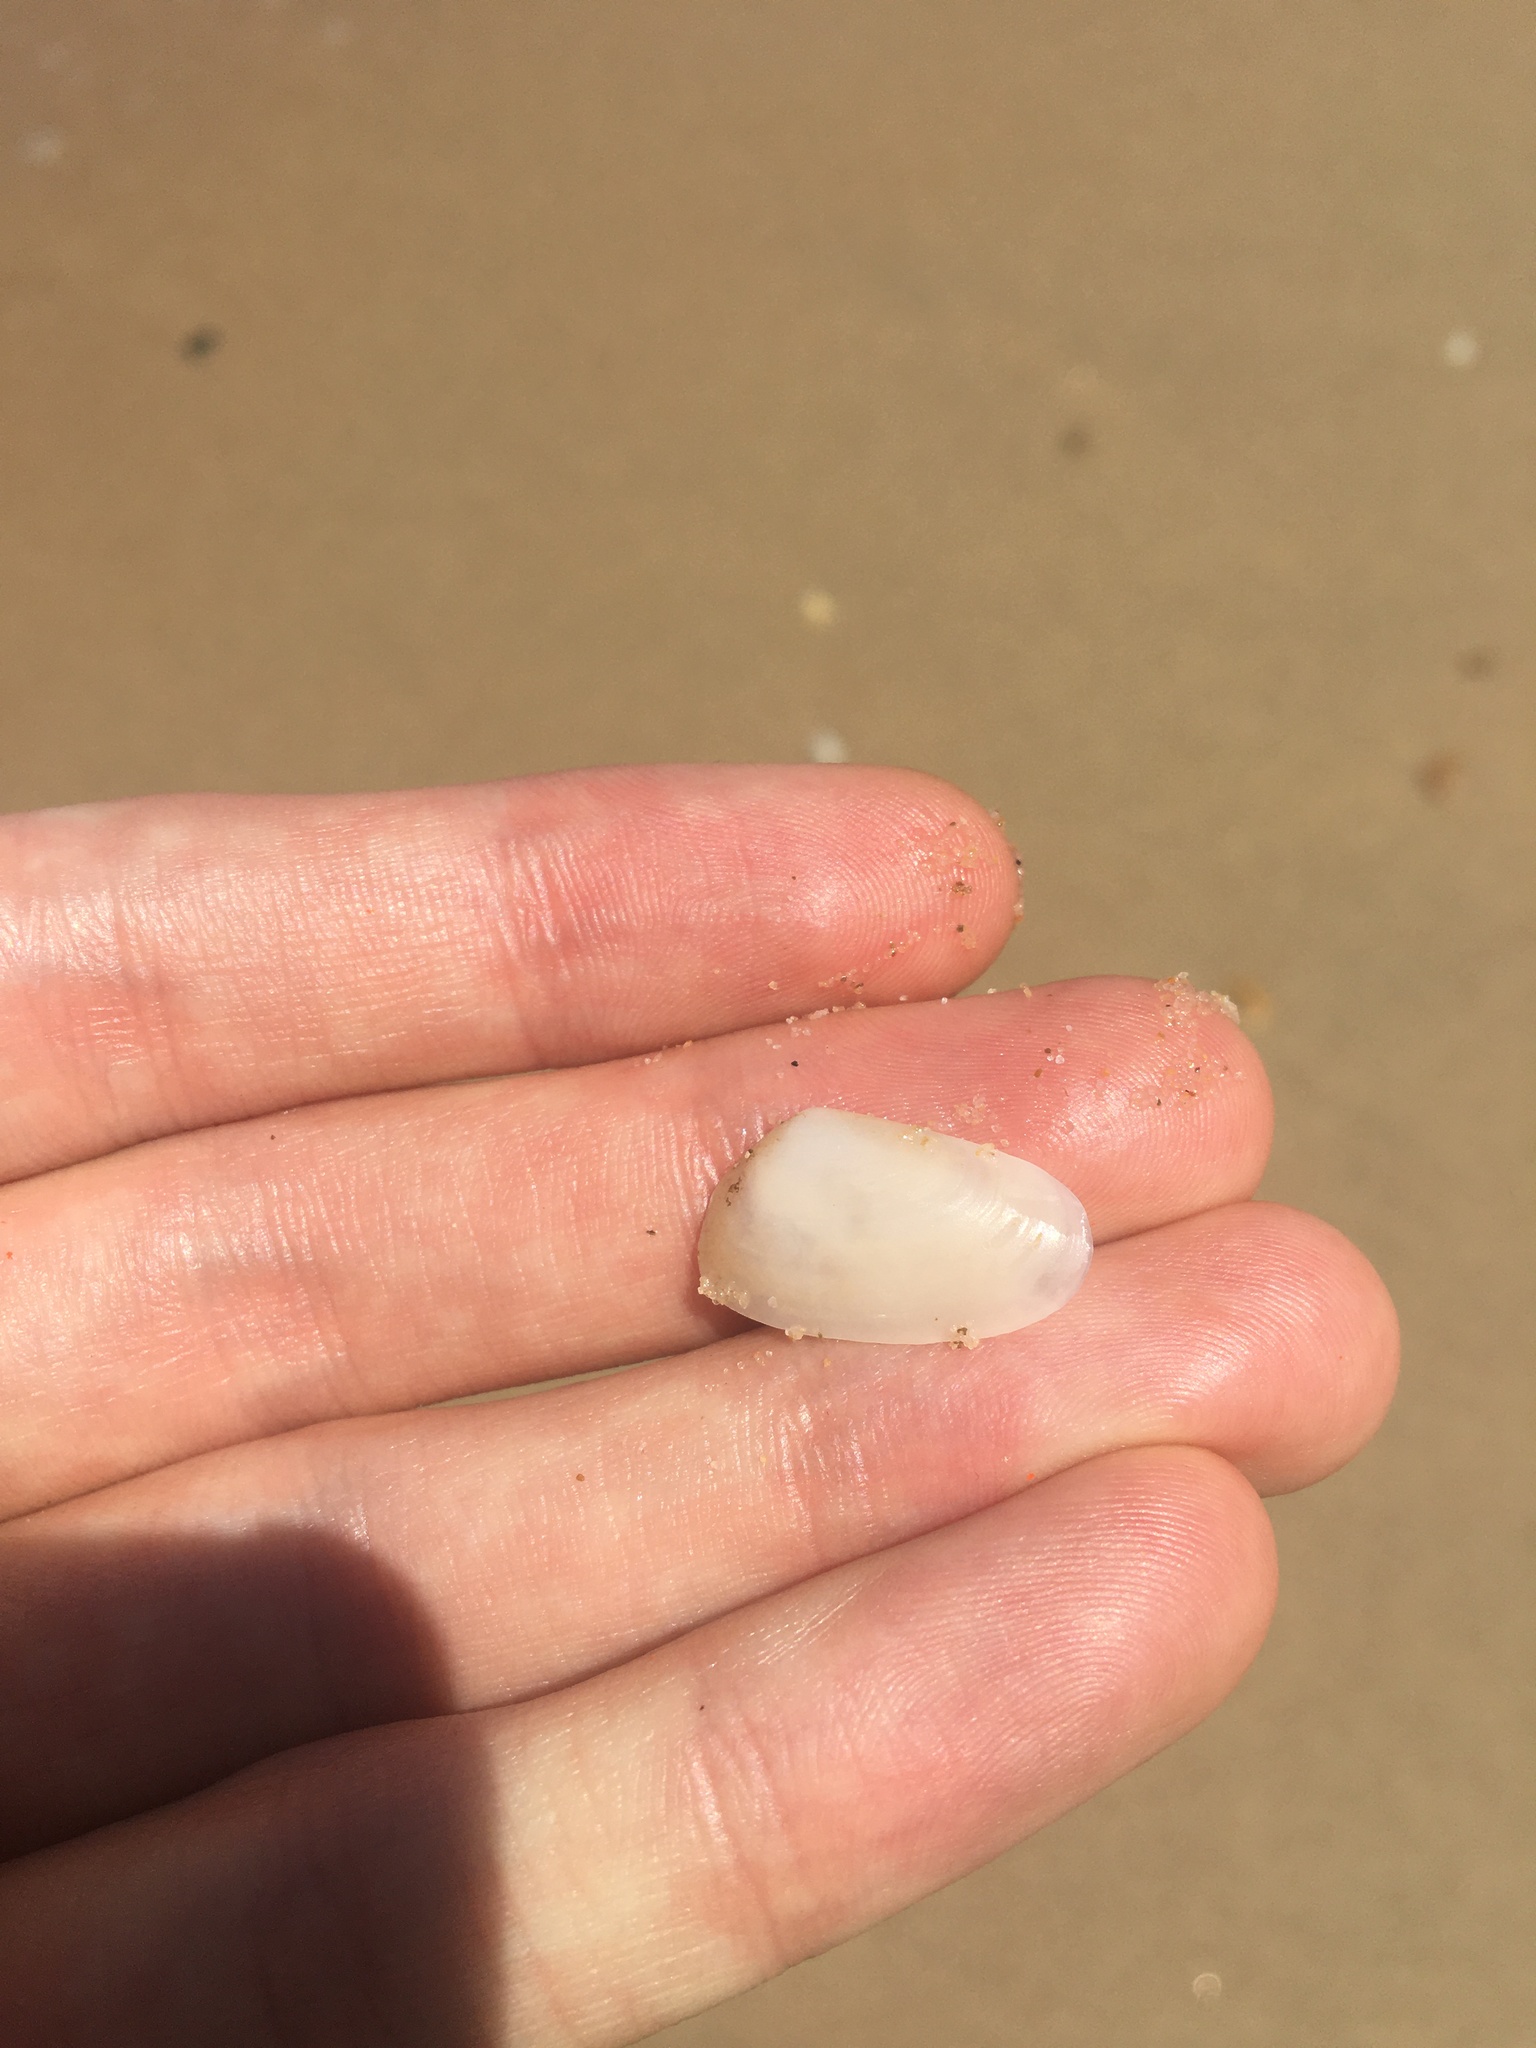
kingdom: Animalia
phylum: Mollusca
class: Bivalvia
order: Venerida
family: Mesodesmatidae
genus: Paphies
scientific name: Paphies angusta
